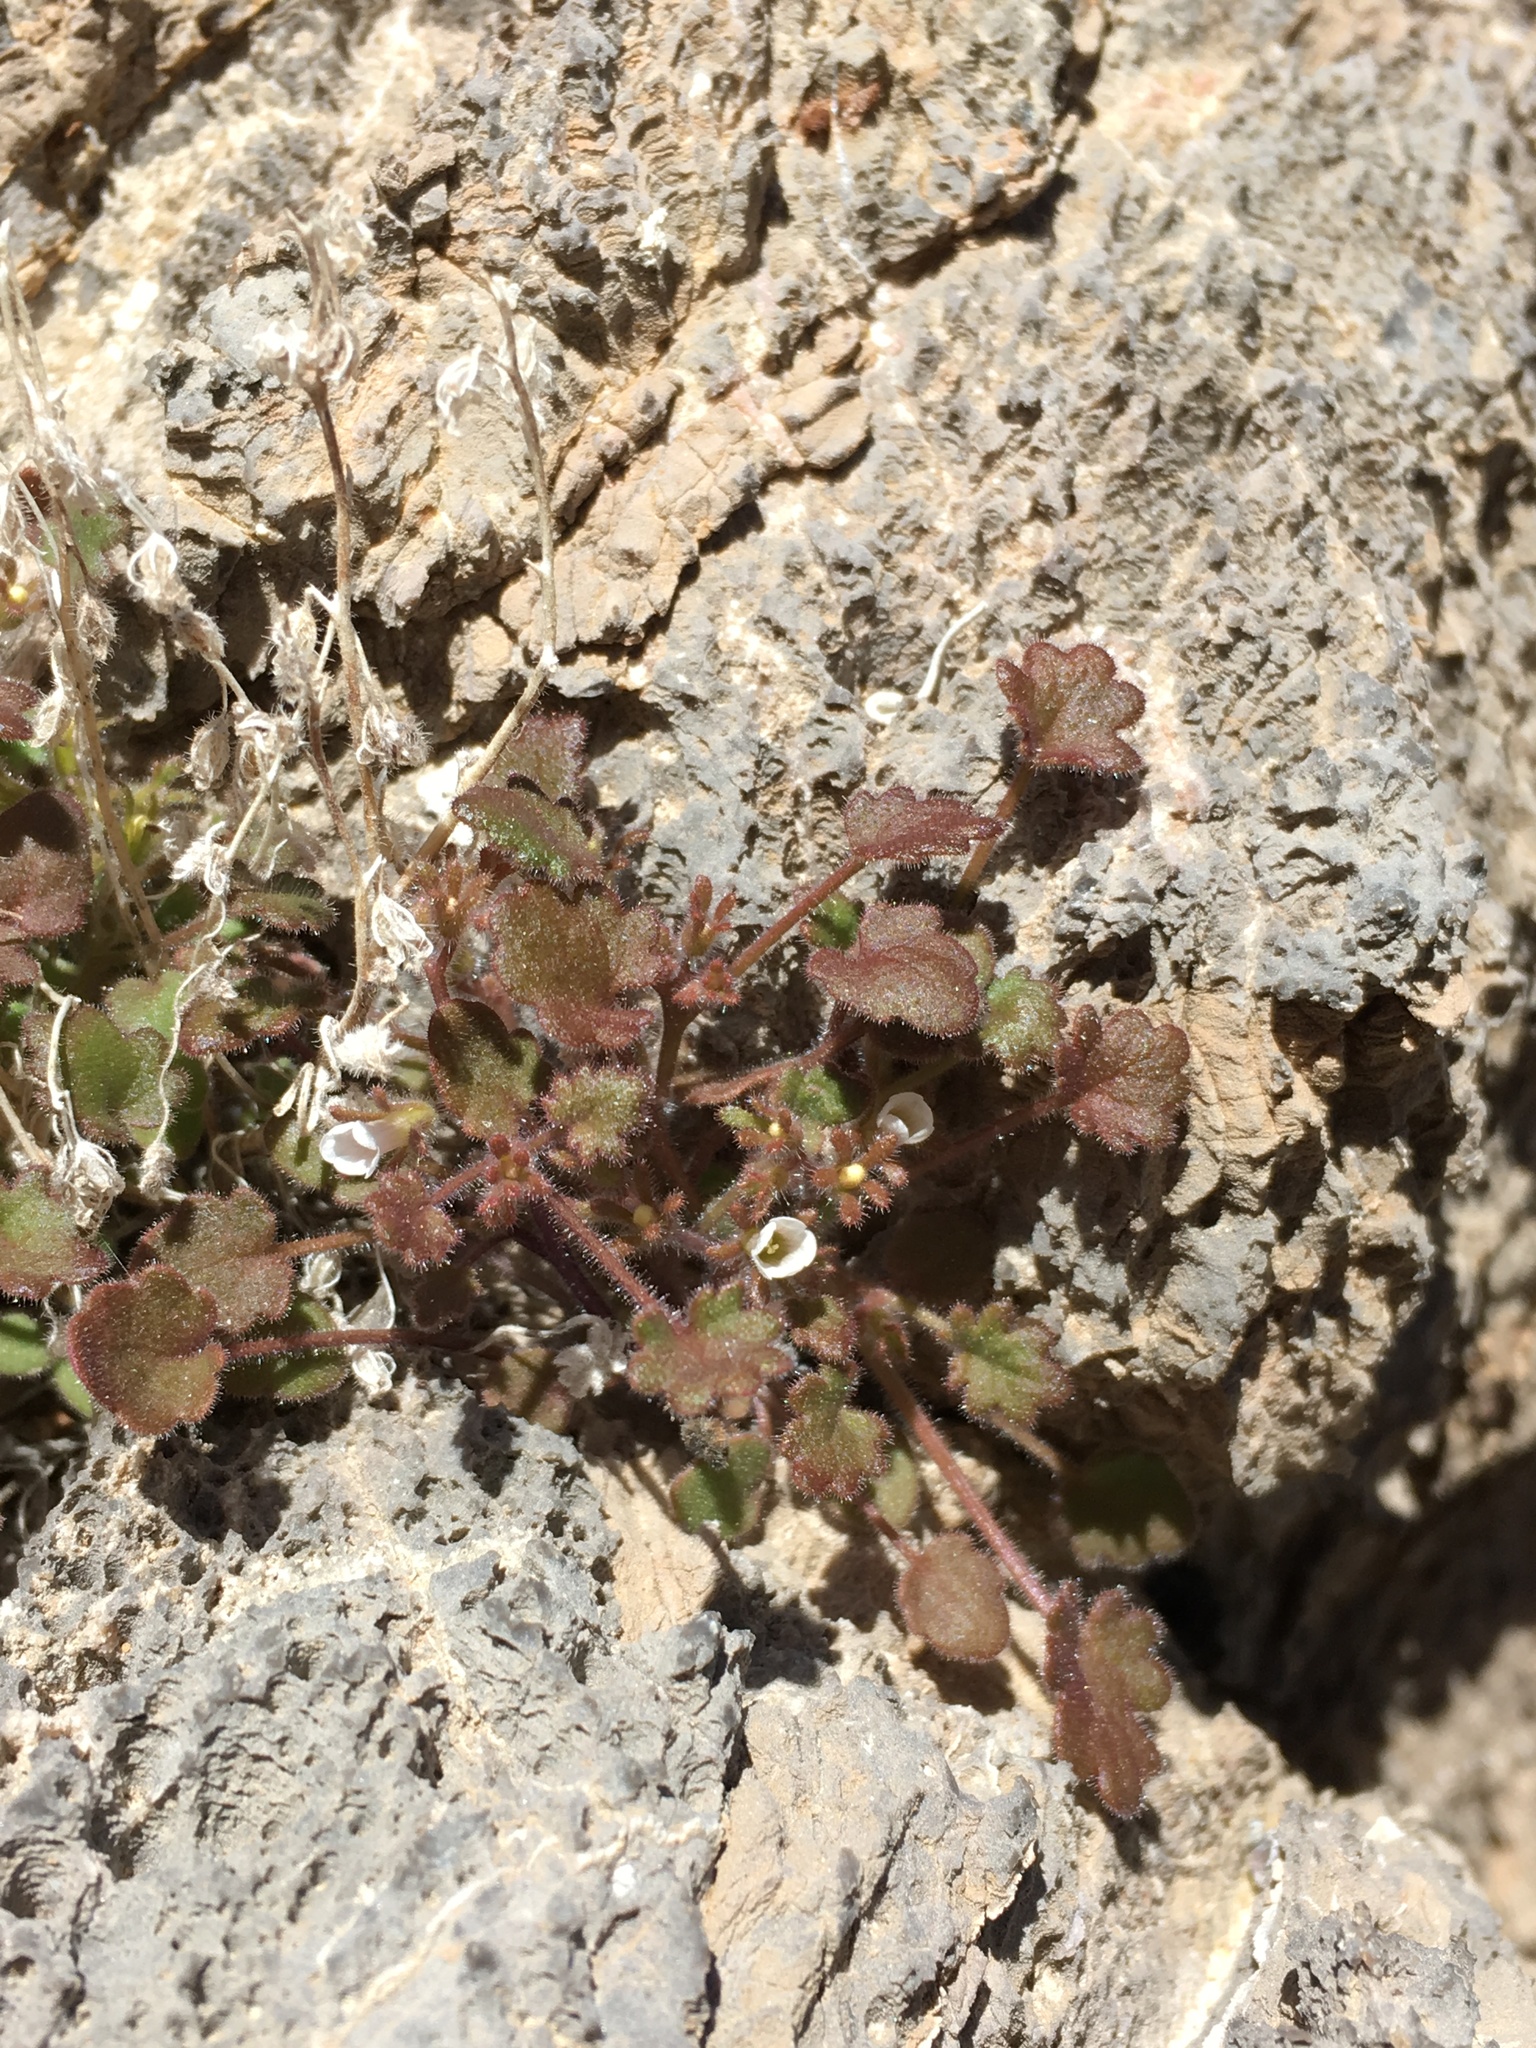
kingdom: Plantae
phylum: Tracheophyta
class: Magnoliopsida
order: Boraginales
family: Hydrophyllaceae
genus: Phacelia
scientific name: Phacelia rotundifolia
